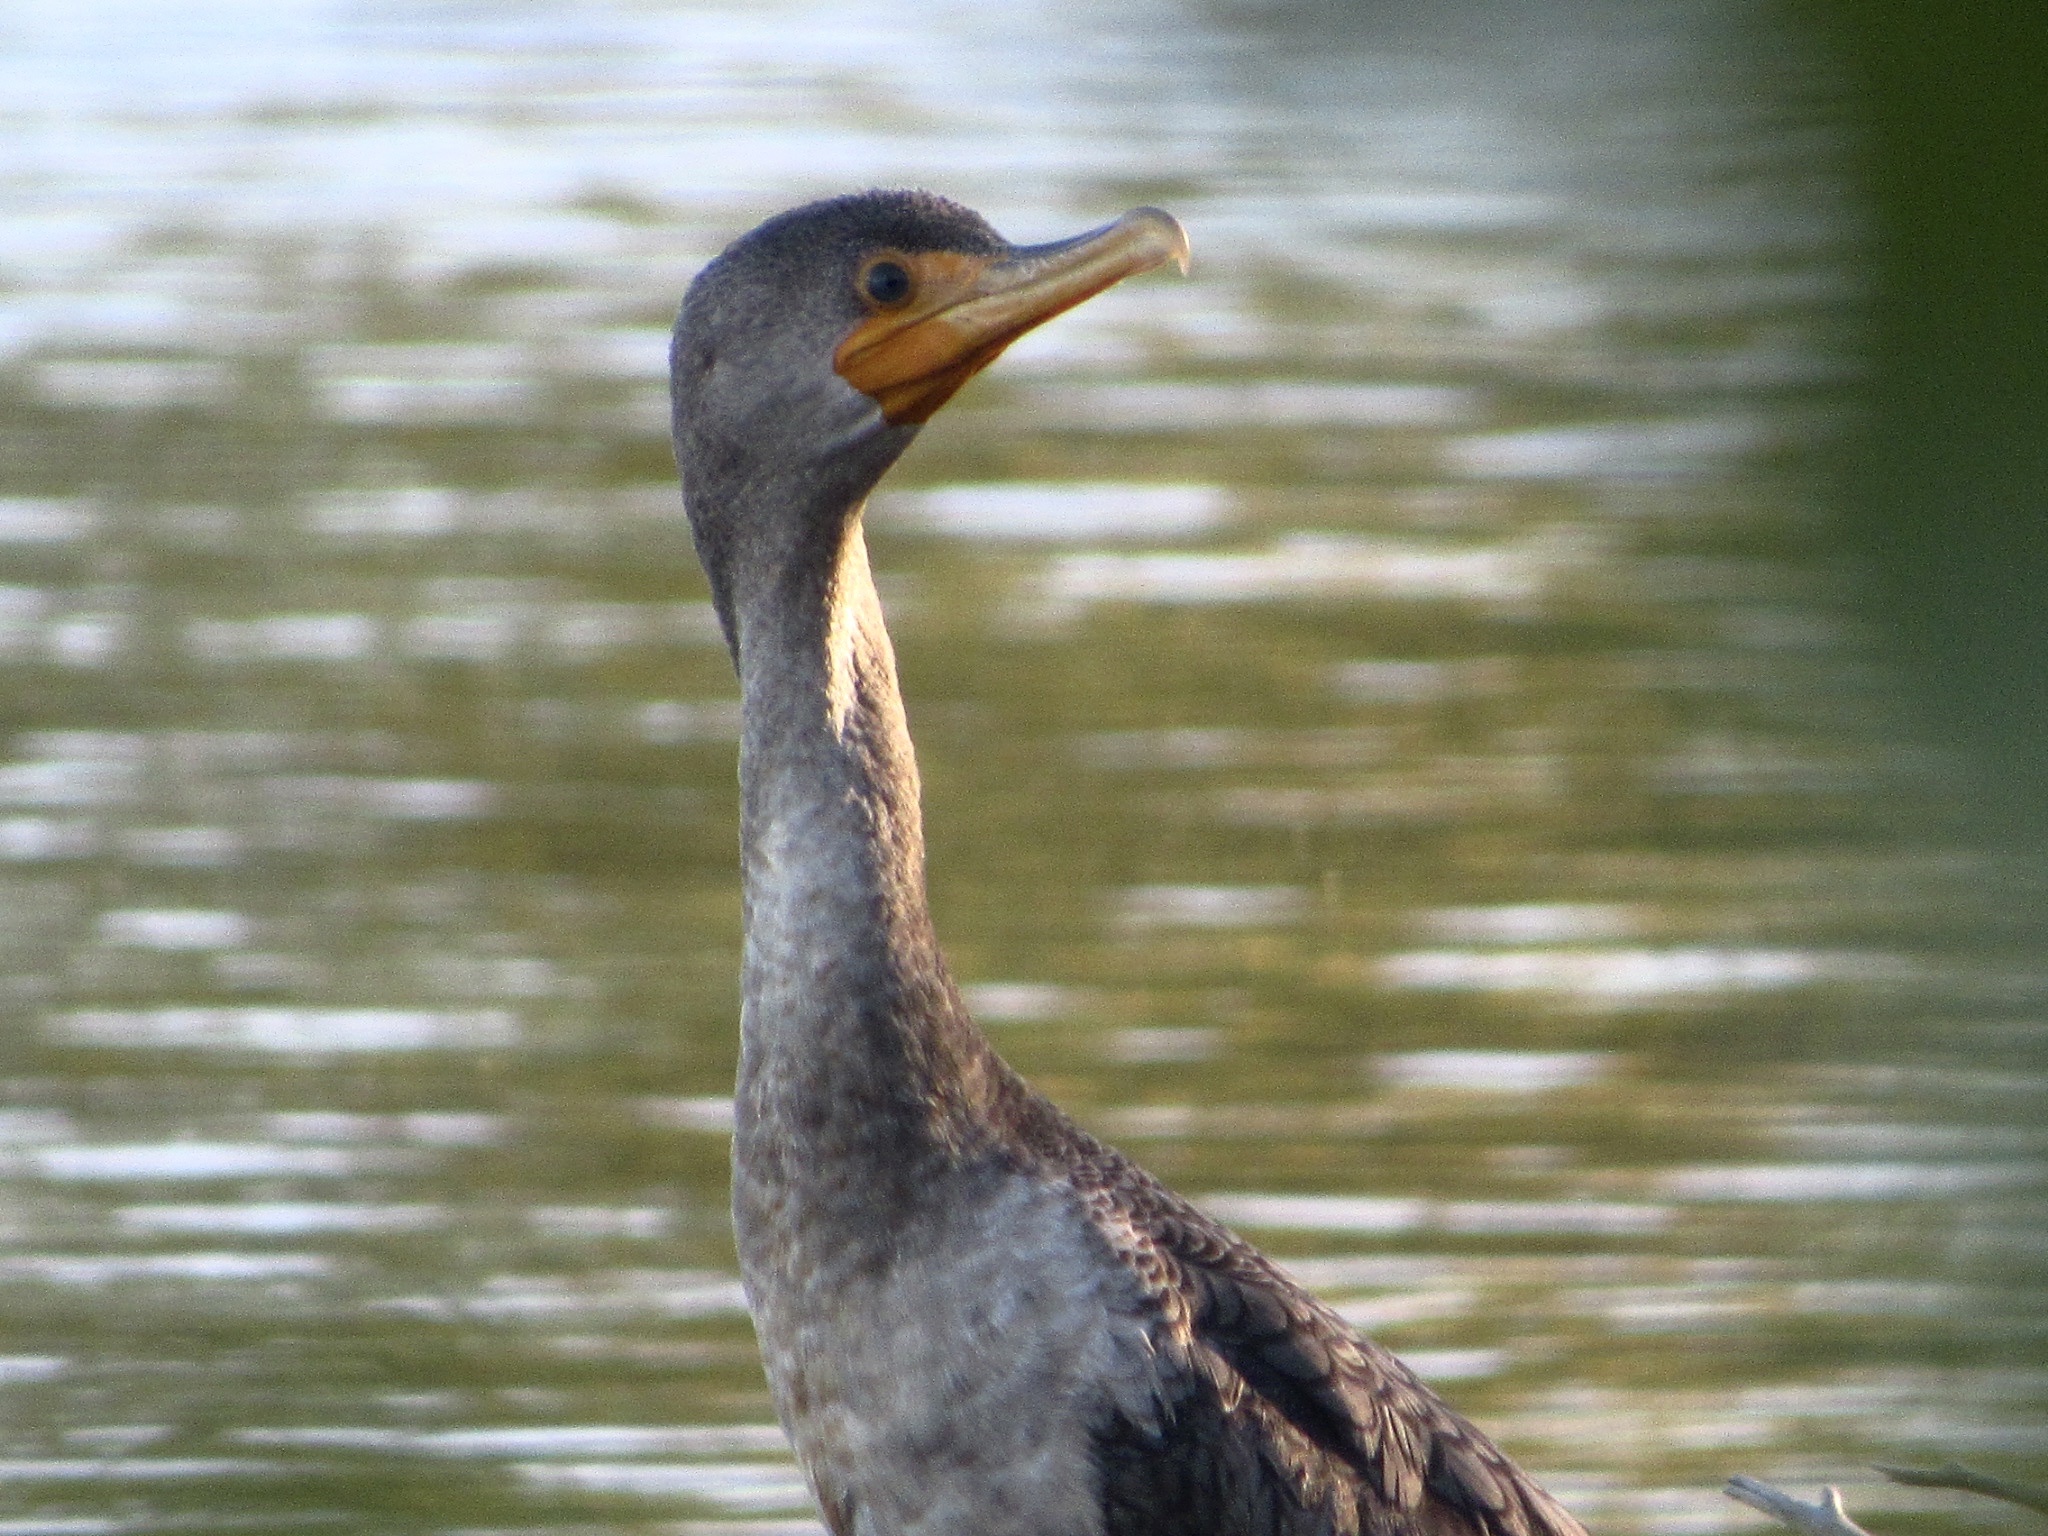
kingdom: Animalia
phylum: Chordata
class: Aves
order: Suliformes
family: Phalacrocoracidae
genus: Phalacrocorax
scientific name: Phalacrocorax auritus
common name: Double-crested cormorant
